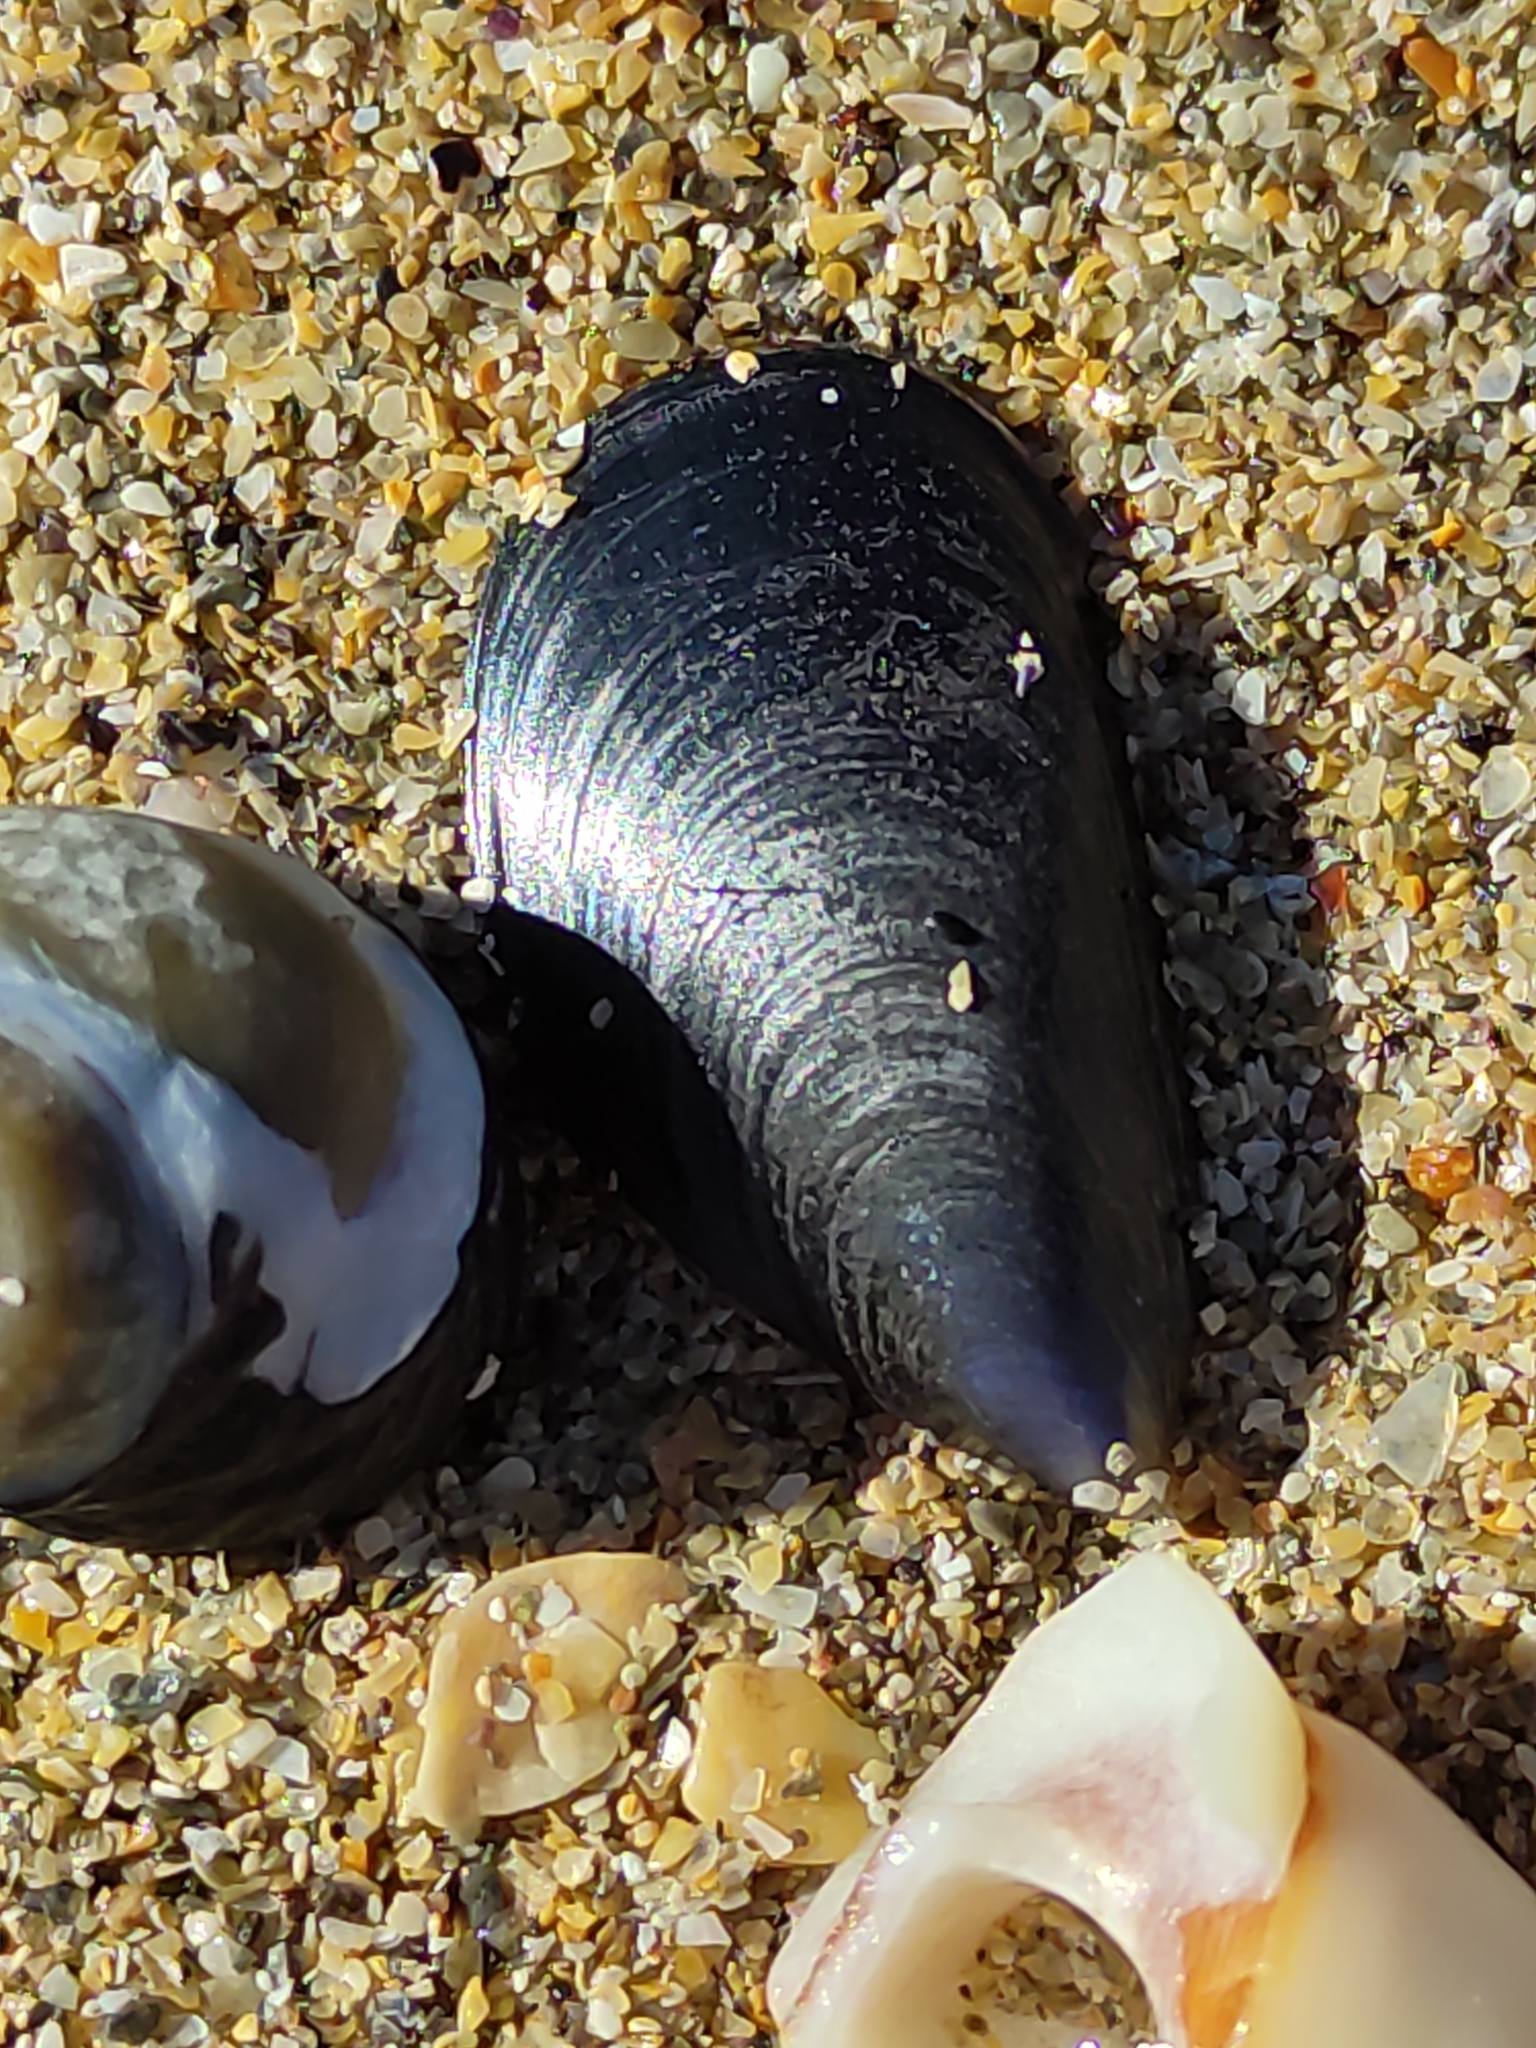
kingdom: Animalia
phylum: Mollusca
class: Bivalvia
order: Mytilida
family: Mytilidae
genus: Mytilus
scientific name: Mytilus planulatus
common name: Australian mussel
